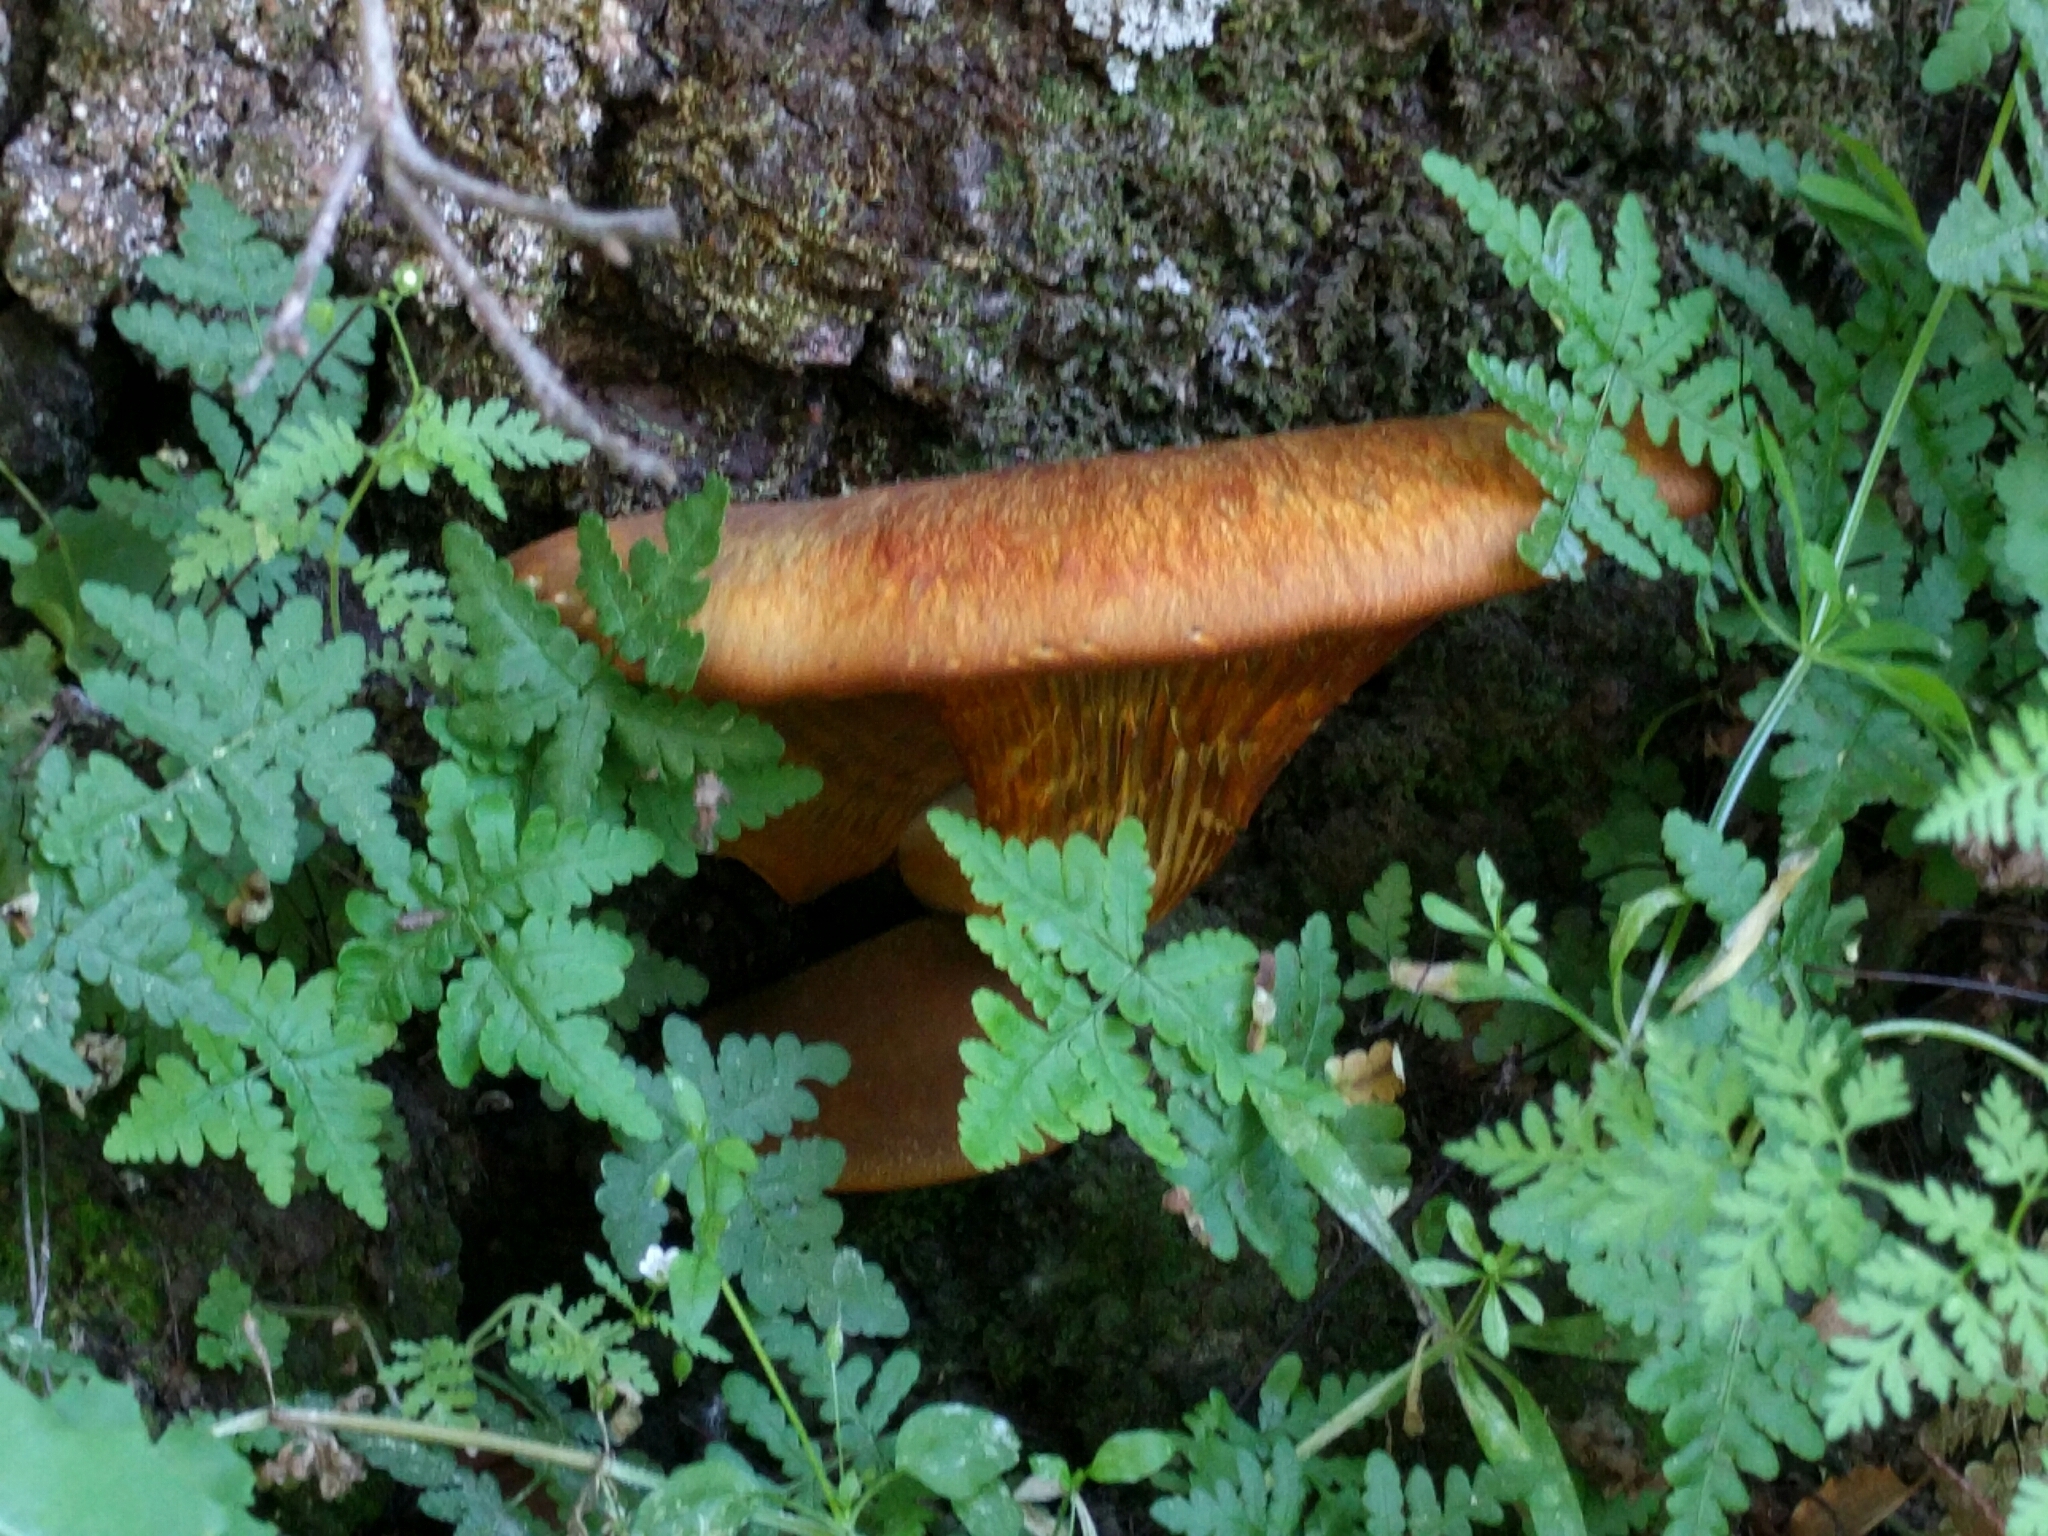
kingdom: Fungi
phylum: Basidiomycota
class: Agaricomycetes
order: Agaricales
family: Omphalotaceae
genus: Omphalotus
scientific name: Omphalotus olivascens
